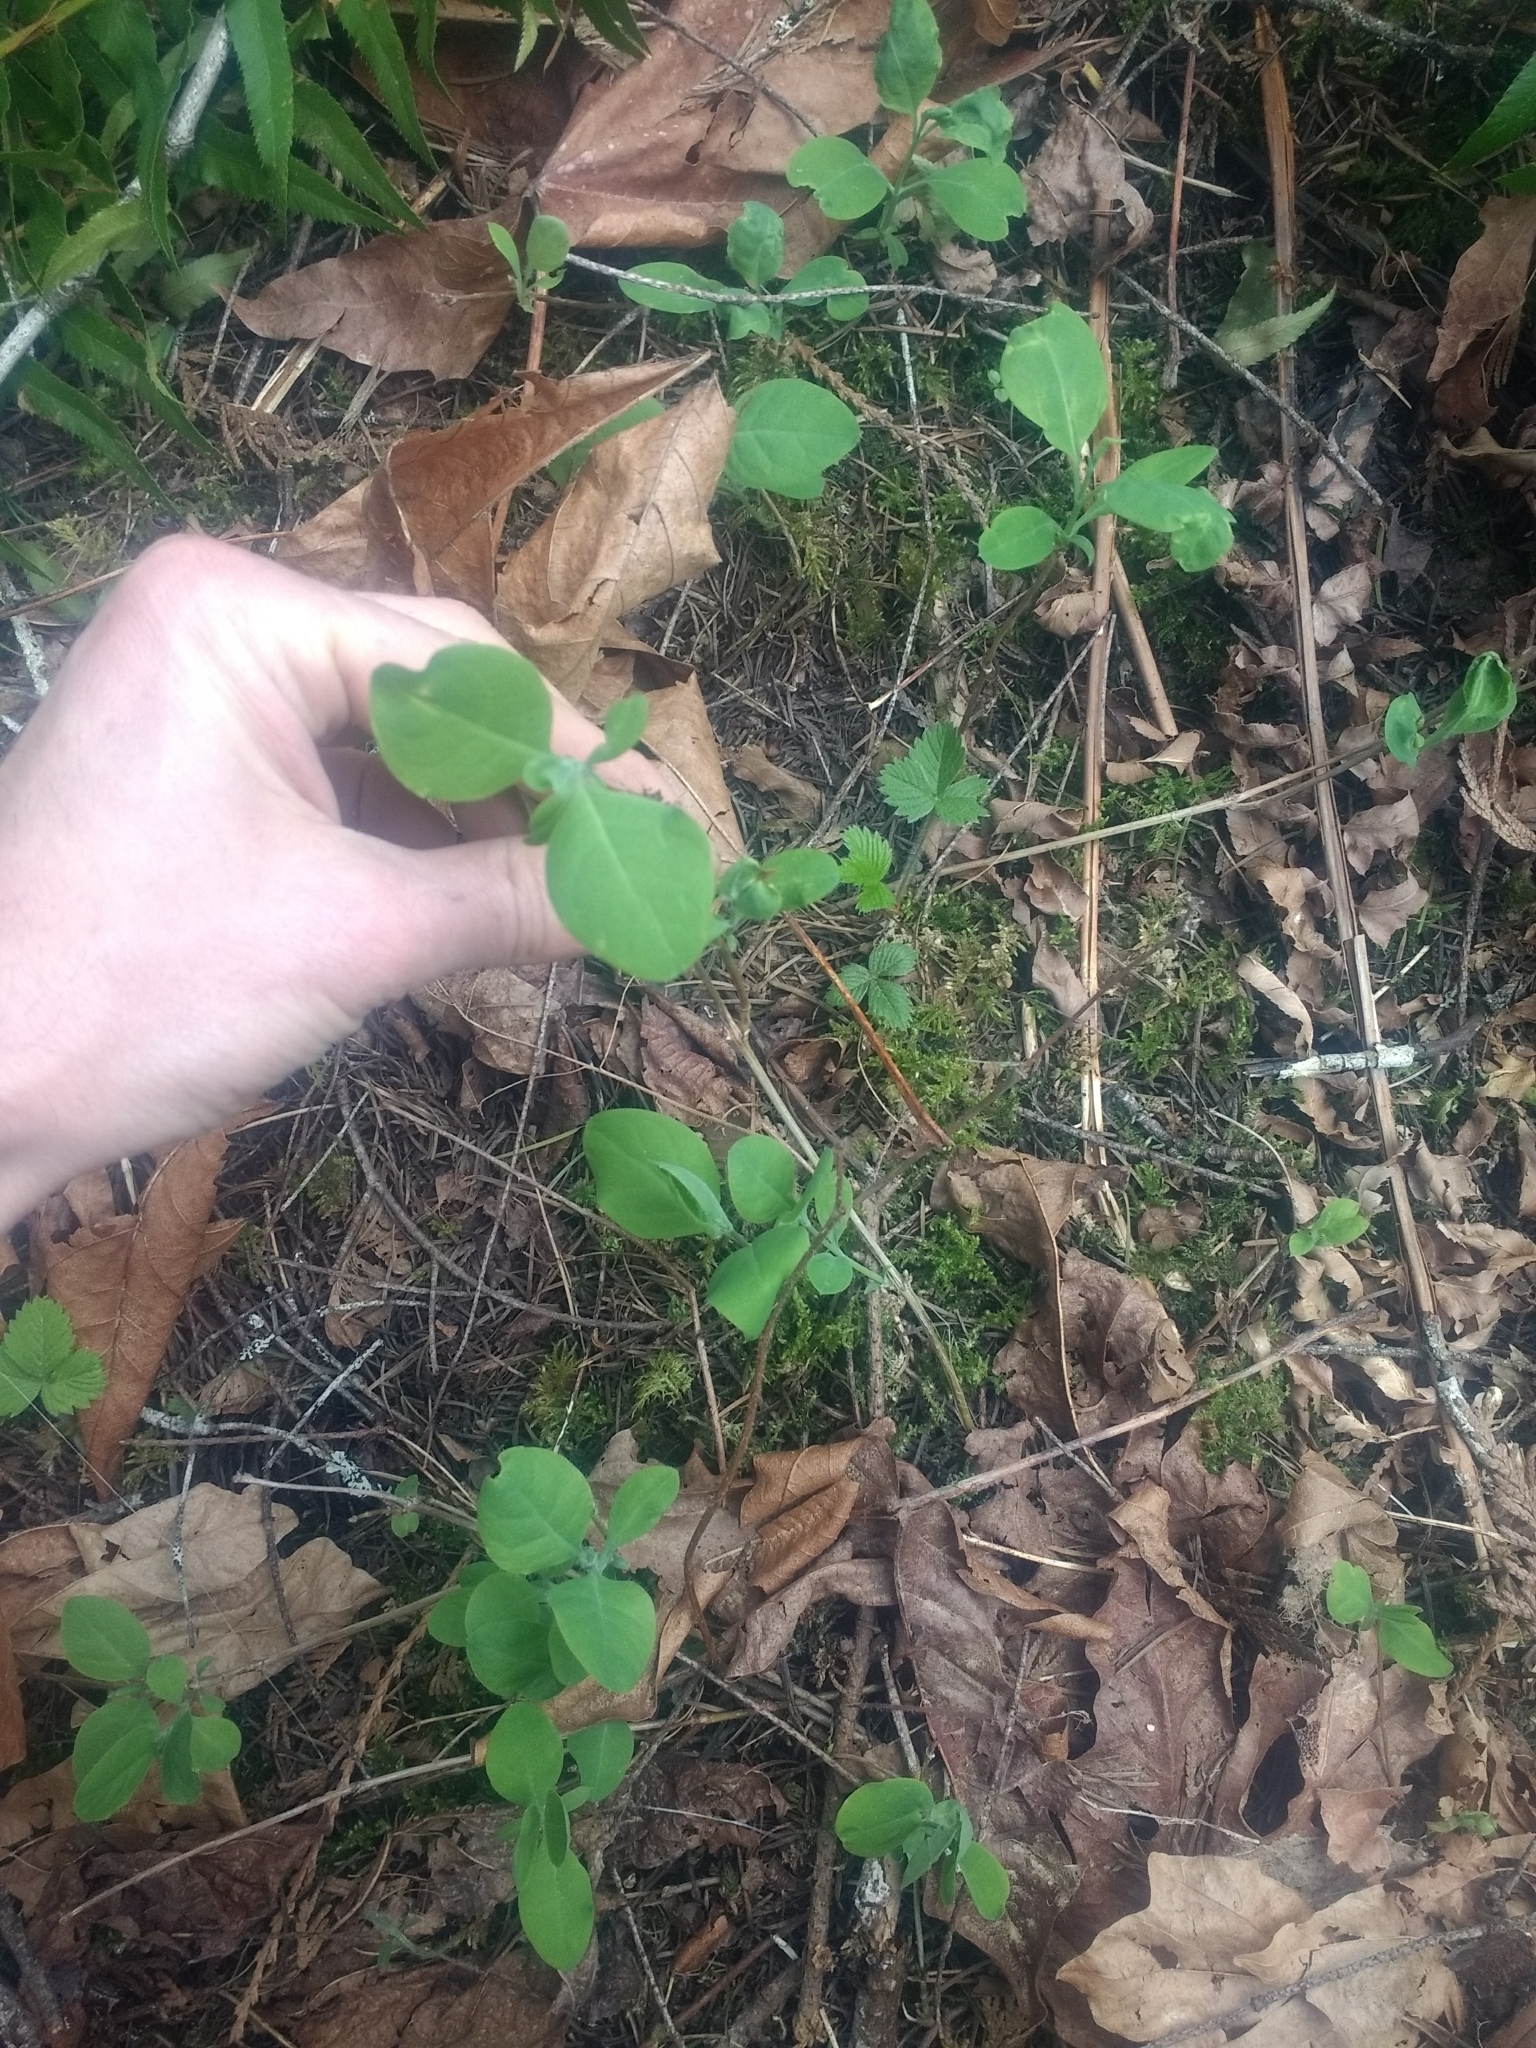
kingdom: Plantae
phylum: Tracheophyta
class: Magnoliopsida
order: Dipsacales
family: Caprifoliaceae
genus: Lonicera
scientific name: Lonicera ciliosa
